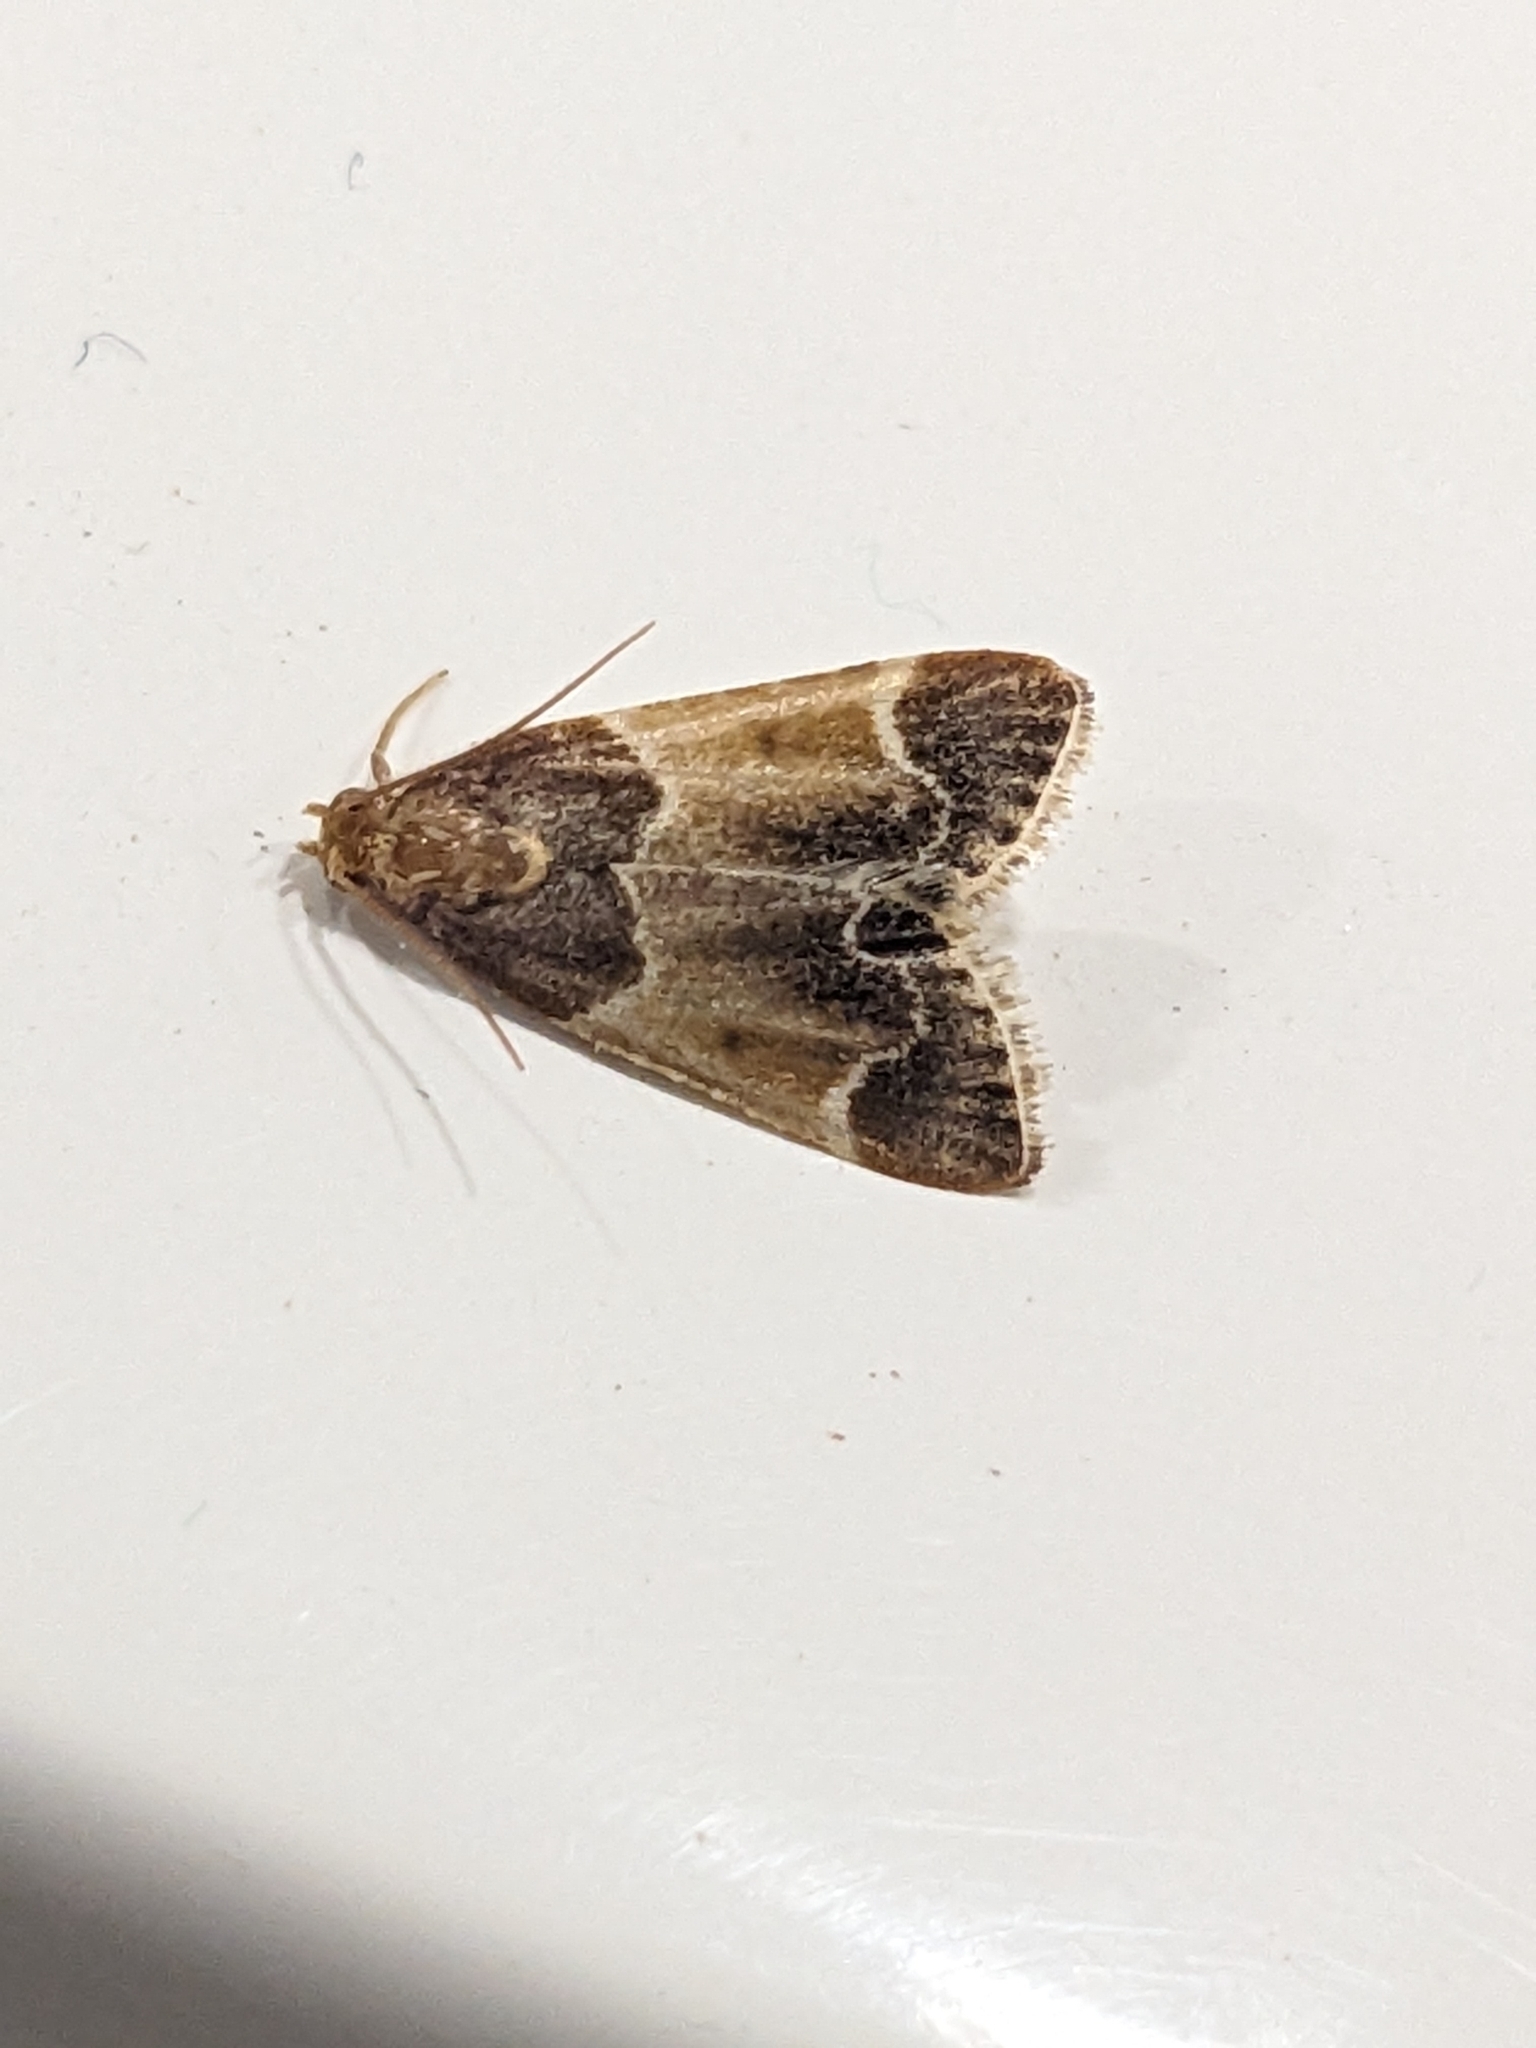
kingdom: Animalia
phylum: Arthropoda
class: Insecta
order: Lepidoptera
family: Pyralidae
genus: Pyralis
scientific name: Pyralis farinalis
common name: Meal moth
